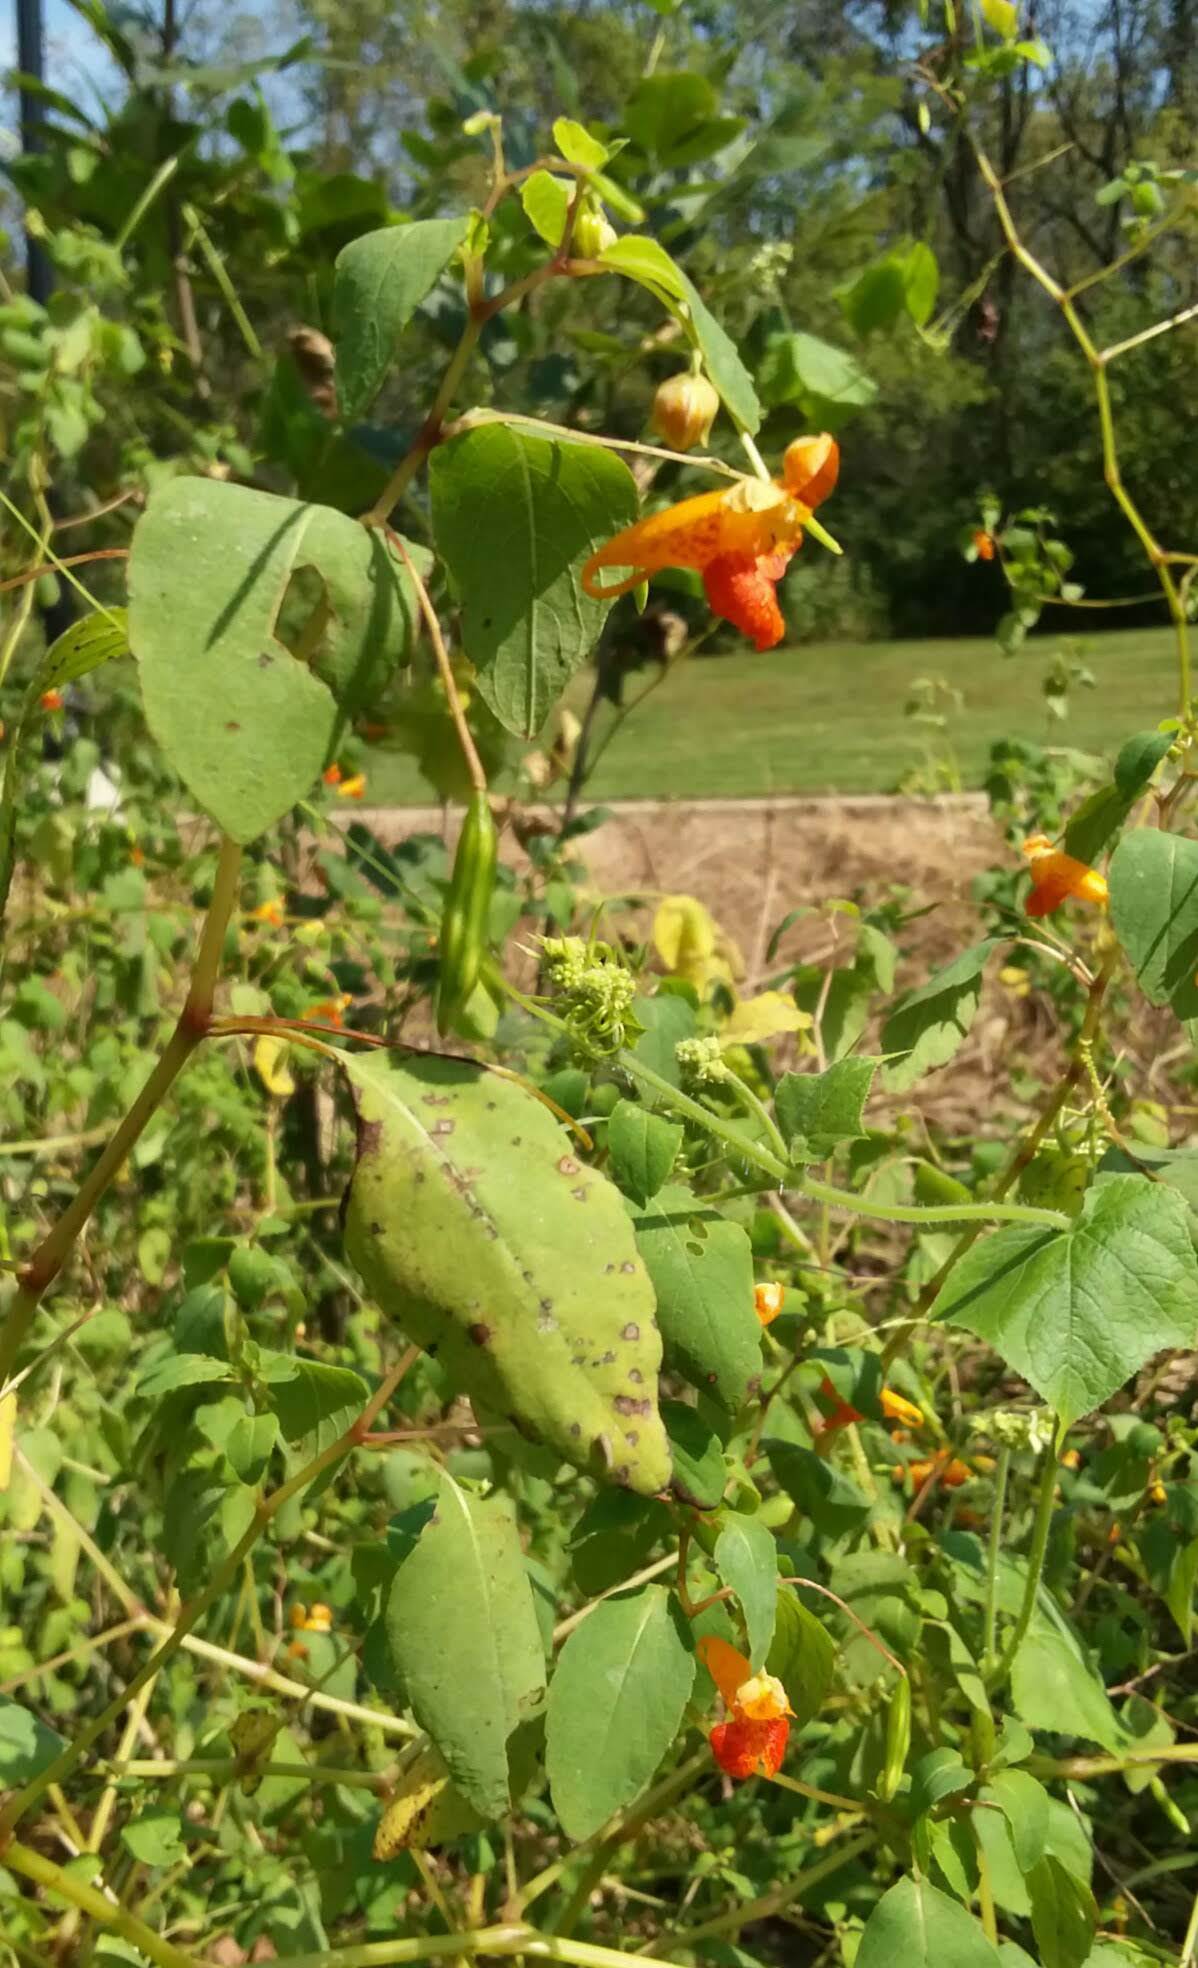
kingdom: Plantae
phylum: Tracheophyta
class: Magnoliopsida
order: Ericales
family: Balsaminaceae
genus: Impatiens
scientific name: Impatiens capensis
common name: Orange balsam
